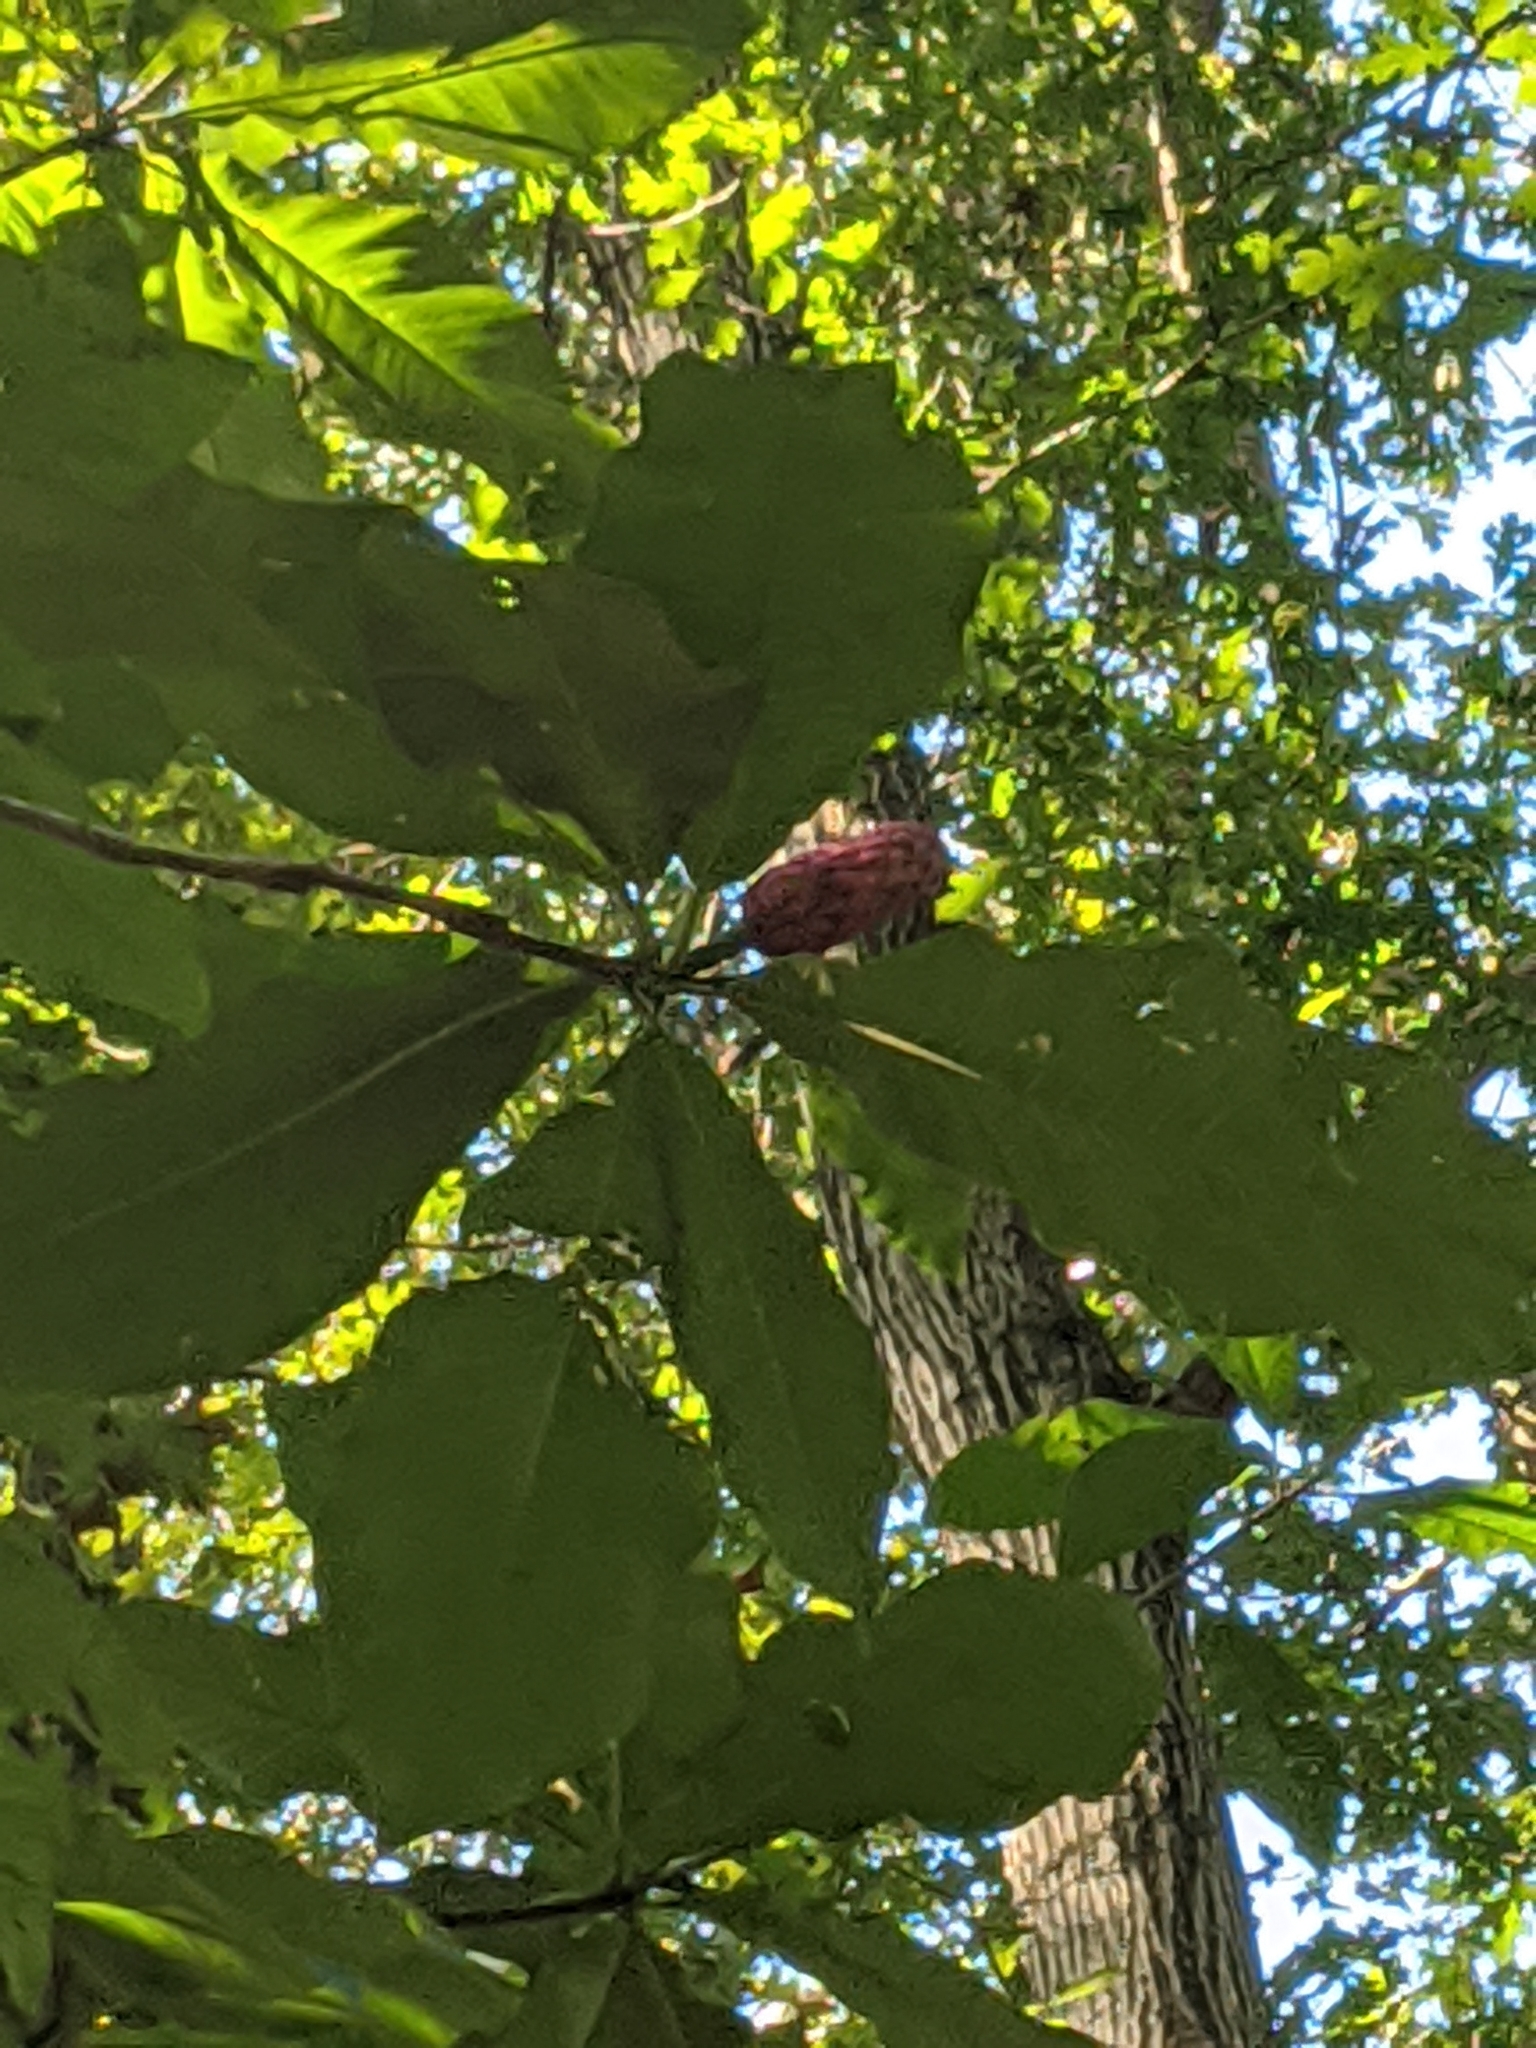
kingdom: Plantae
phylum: Tracheophyta
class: Magnoliopsida
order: Magnoliales
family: Magnoliaceae
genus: Magnolia
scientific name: Magnolia tripetala
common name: Umbrella magnolia
